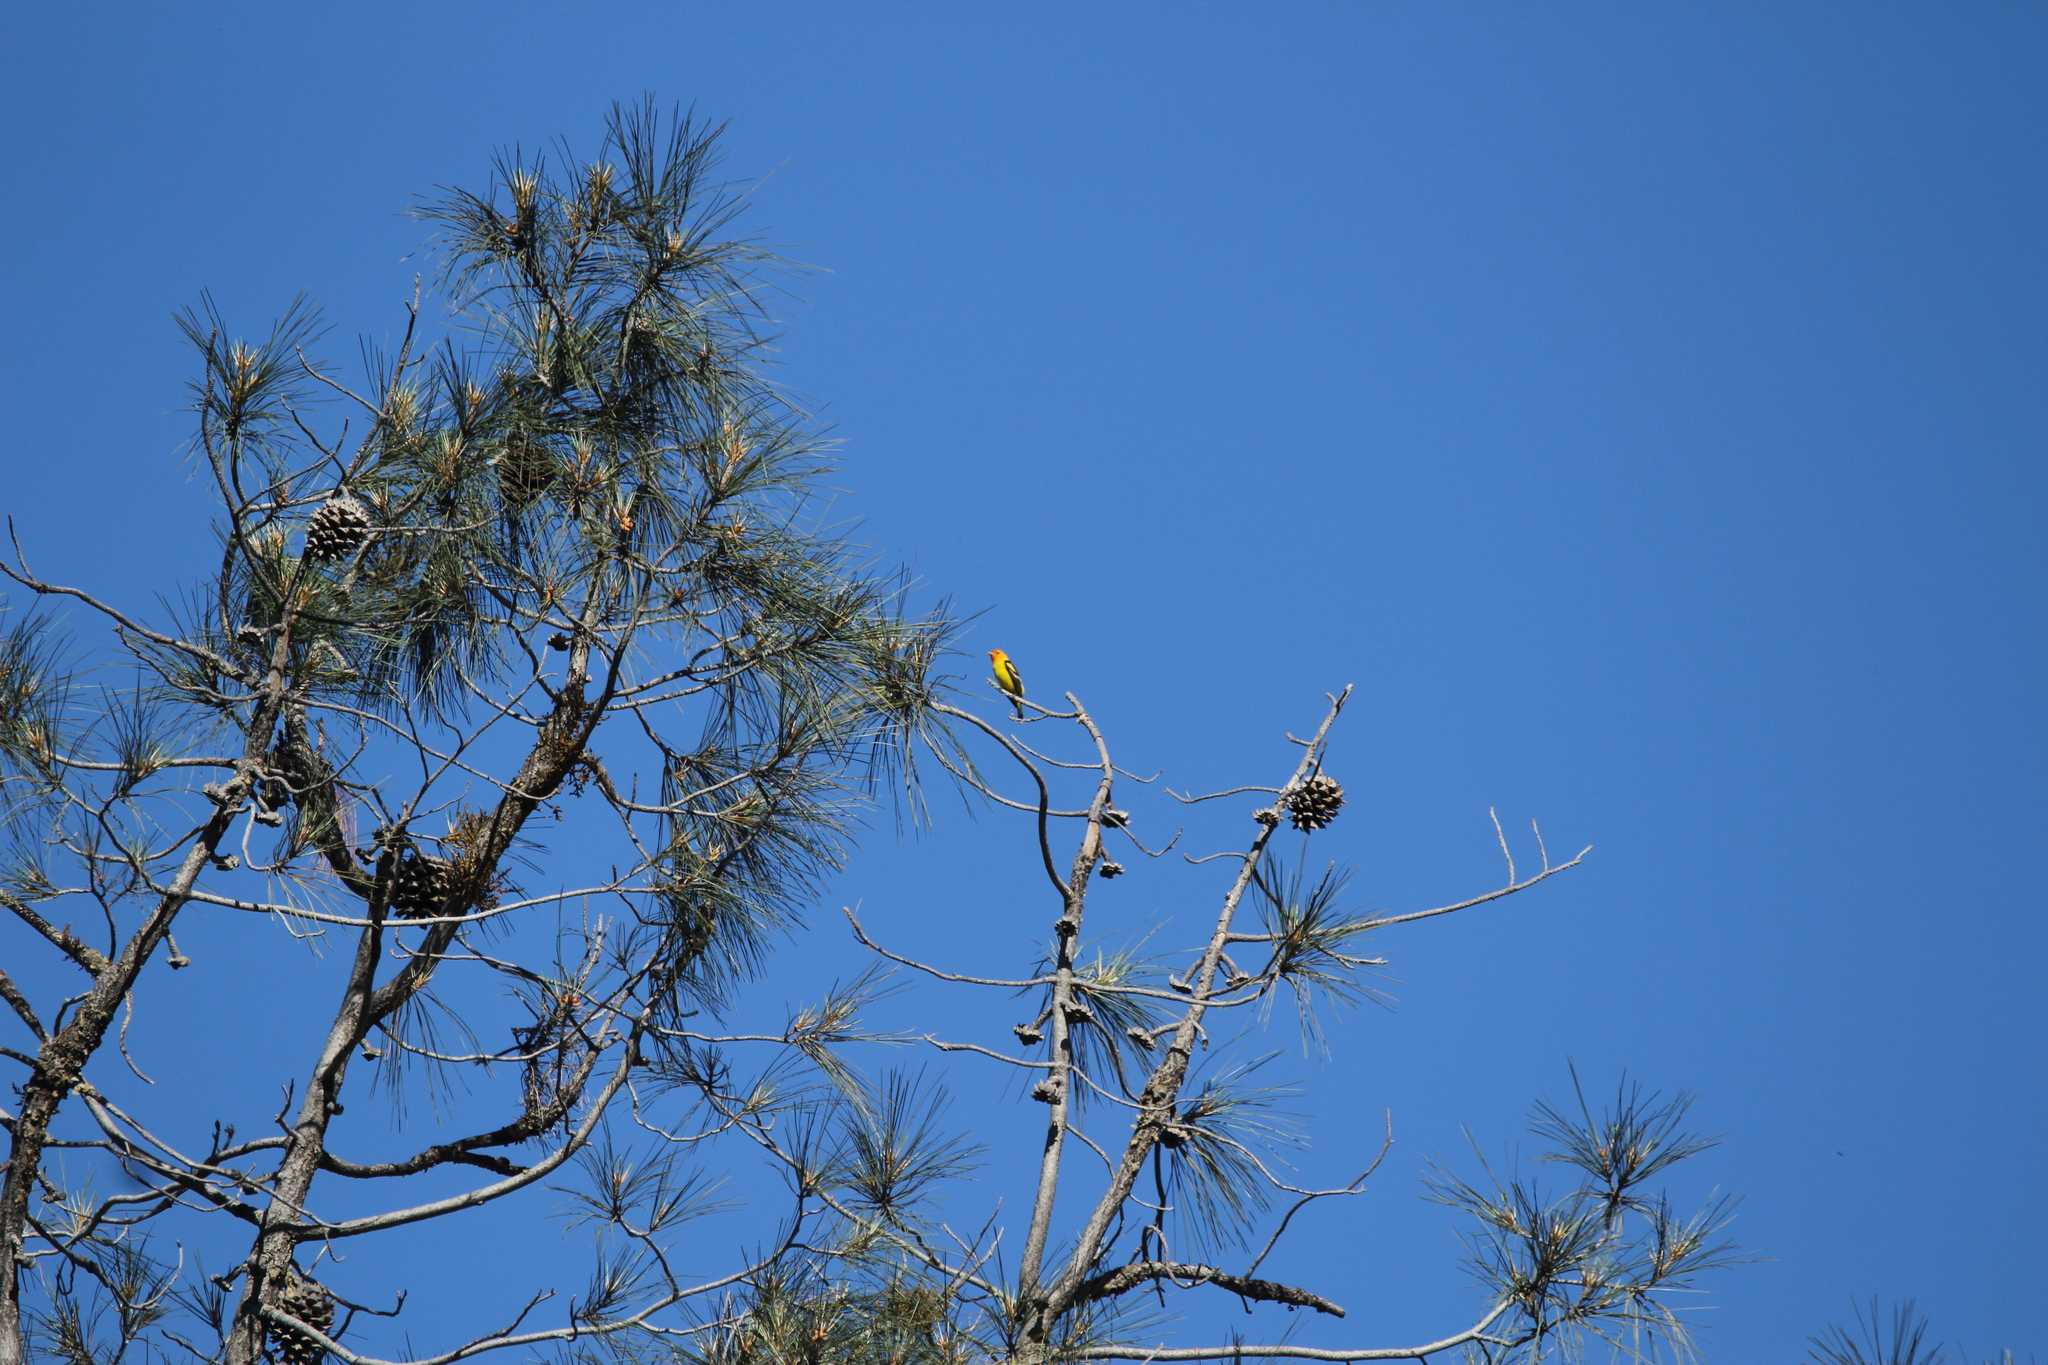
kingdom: Animalia
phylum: Chordata
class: Aves
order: Passeriformes
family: Cardinalidae
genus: Piranga
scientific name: Piranga ludoviciana
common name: Western tanager
